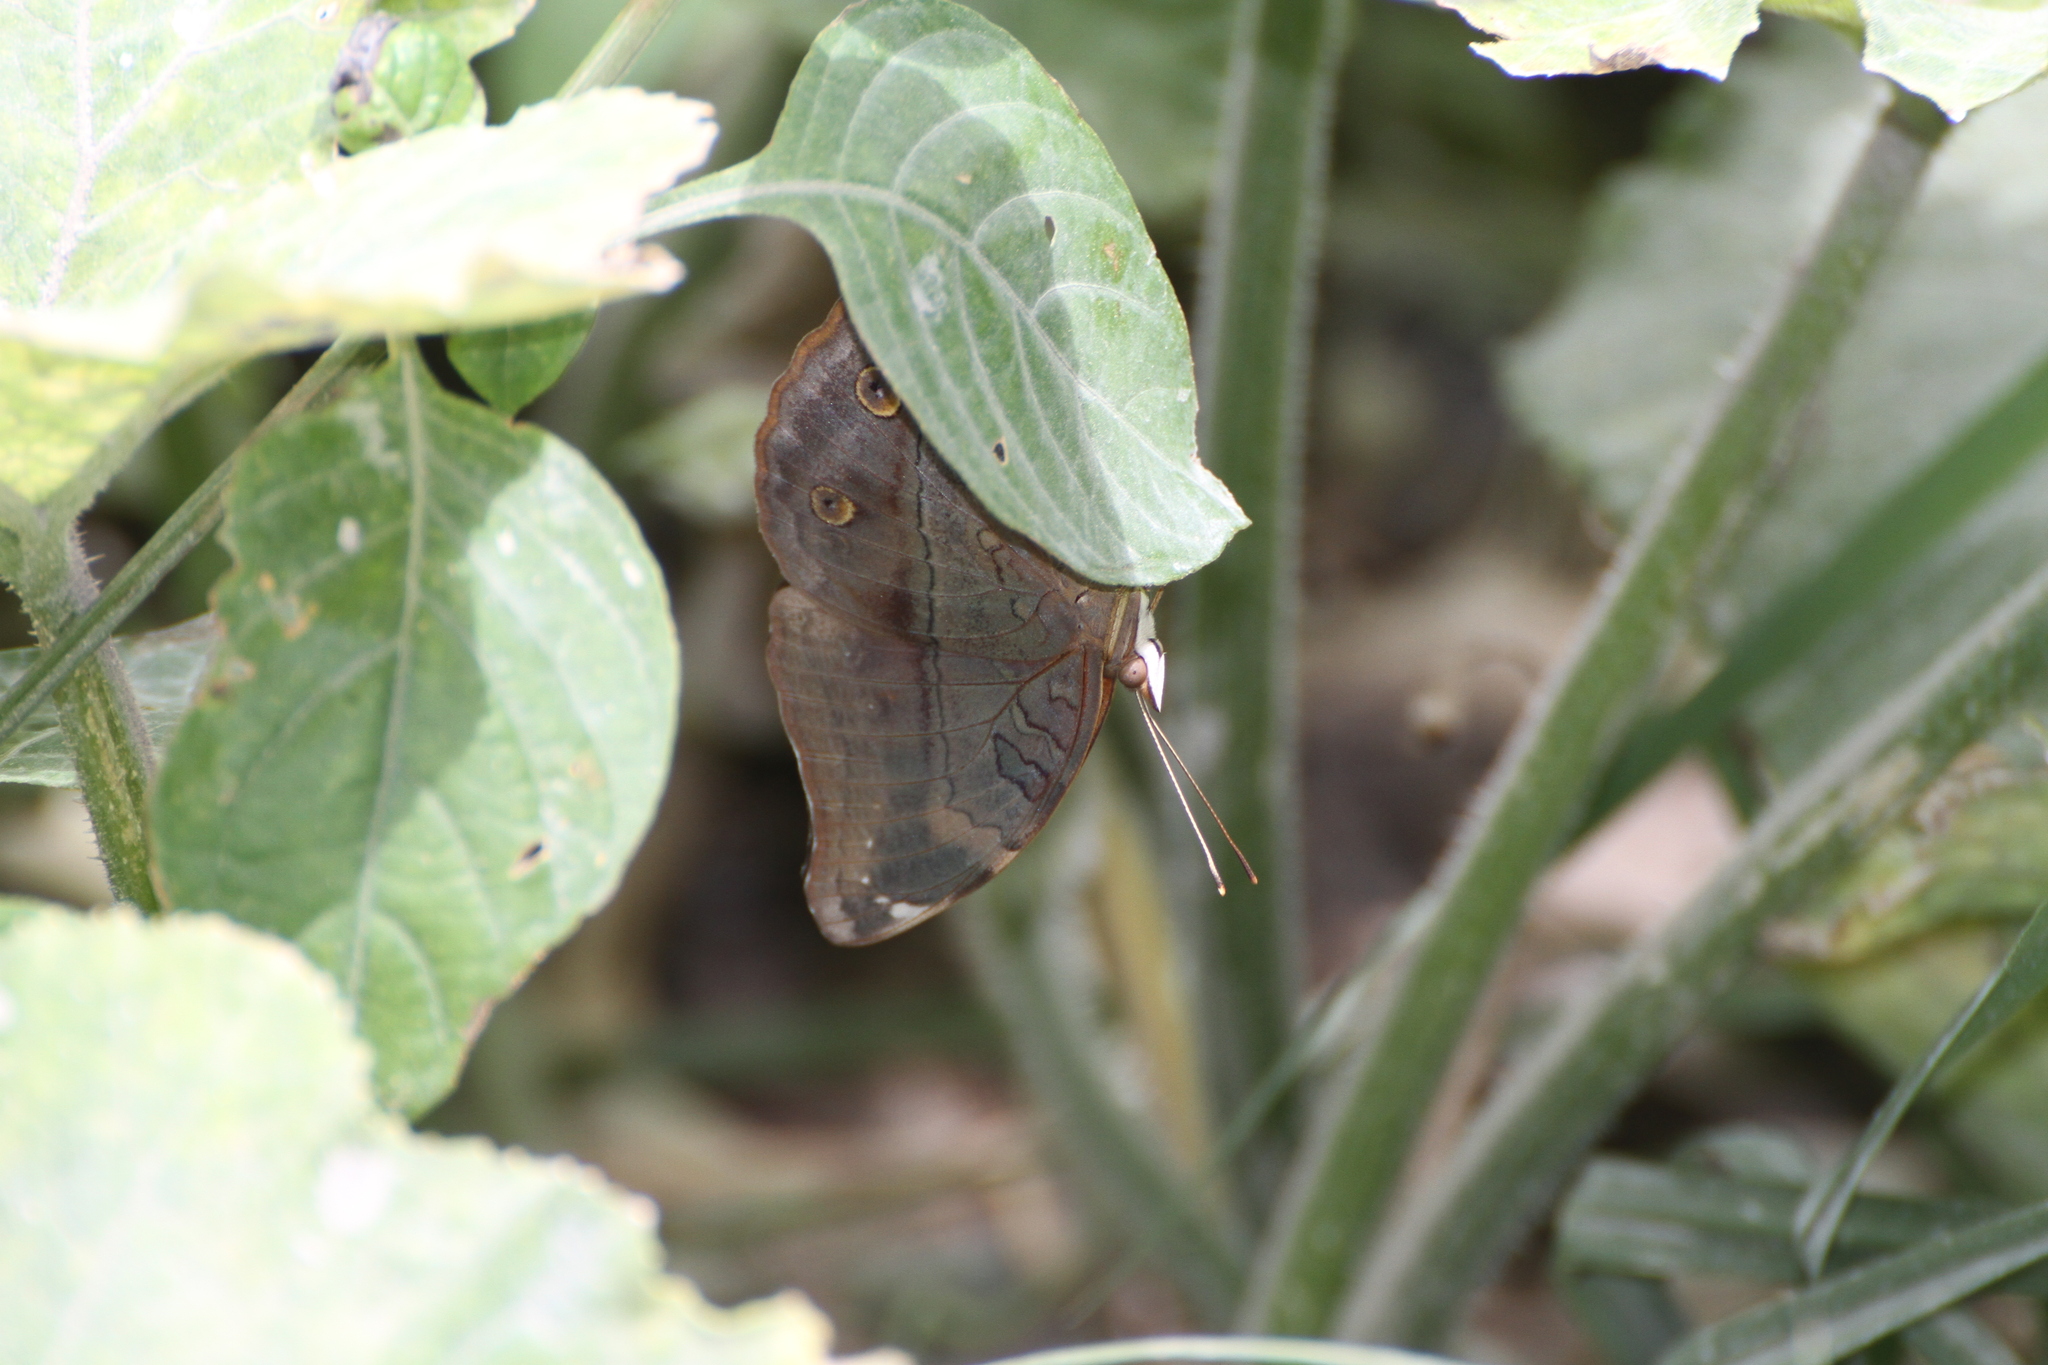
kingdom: Animalia
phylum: Arthropoda
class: Insecta
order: Lepidoptera
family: Nymphalidae
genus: Doleschallia
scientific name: Doleschallia bisaltide
